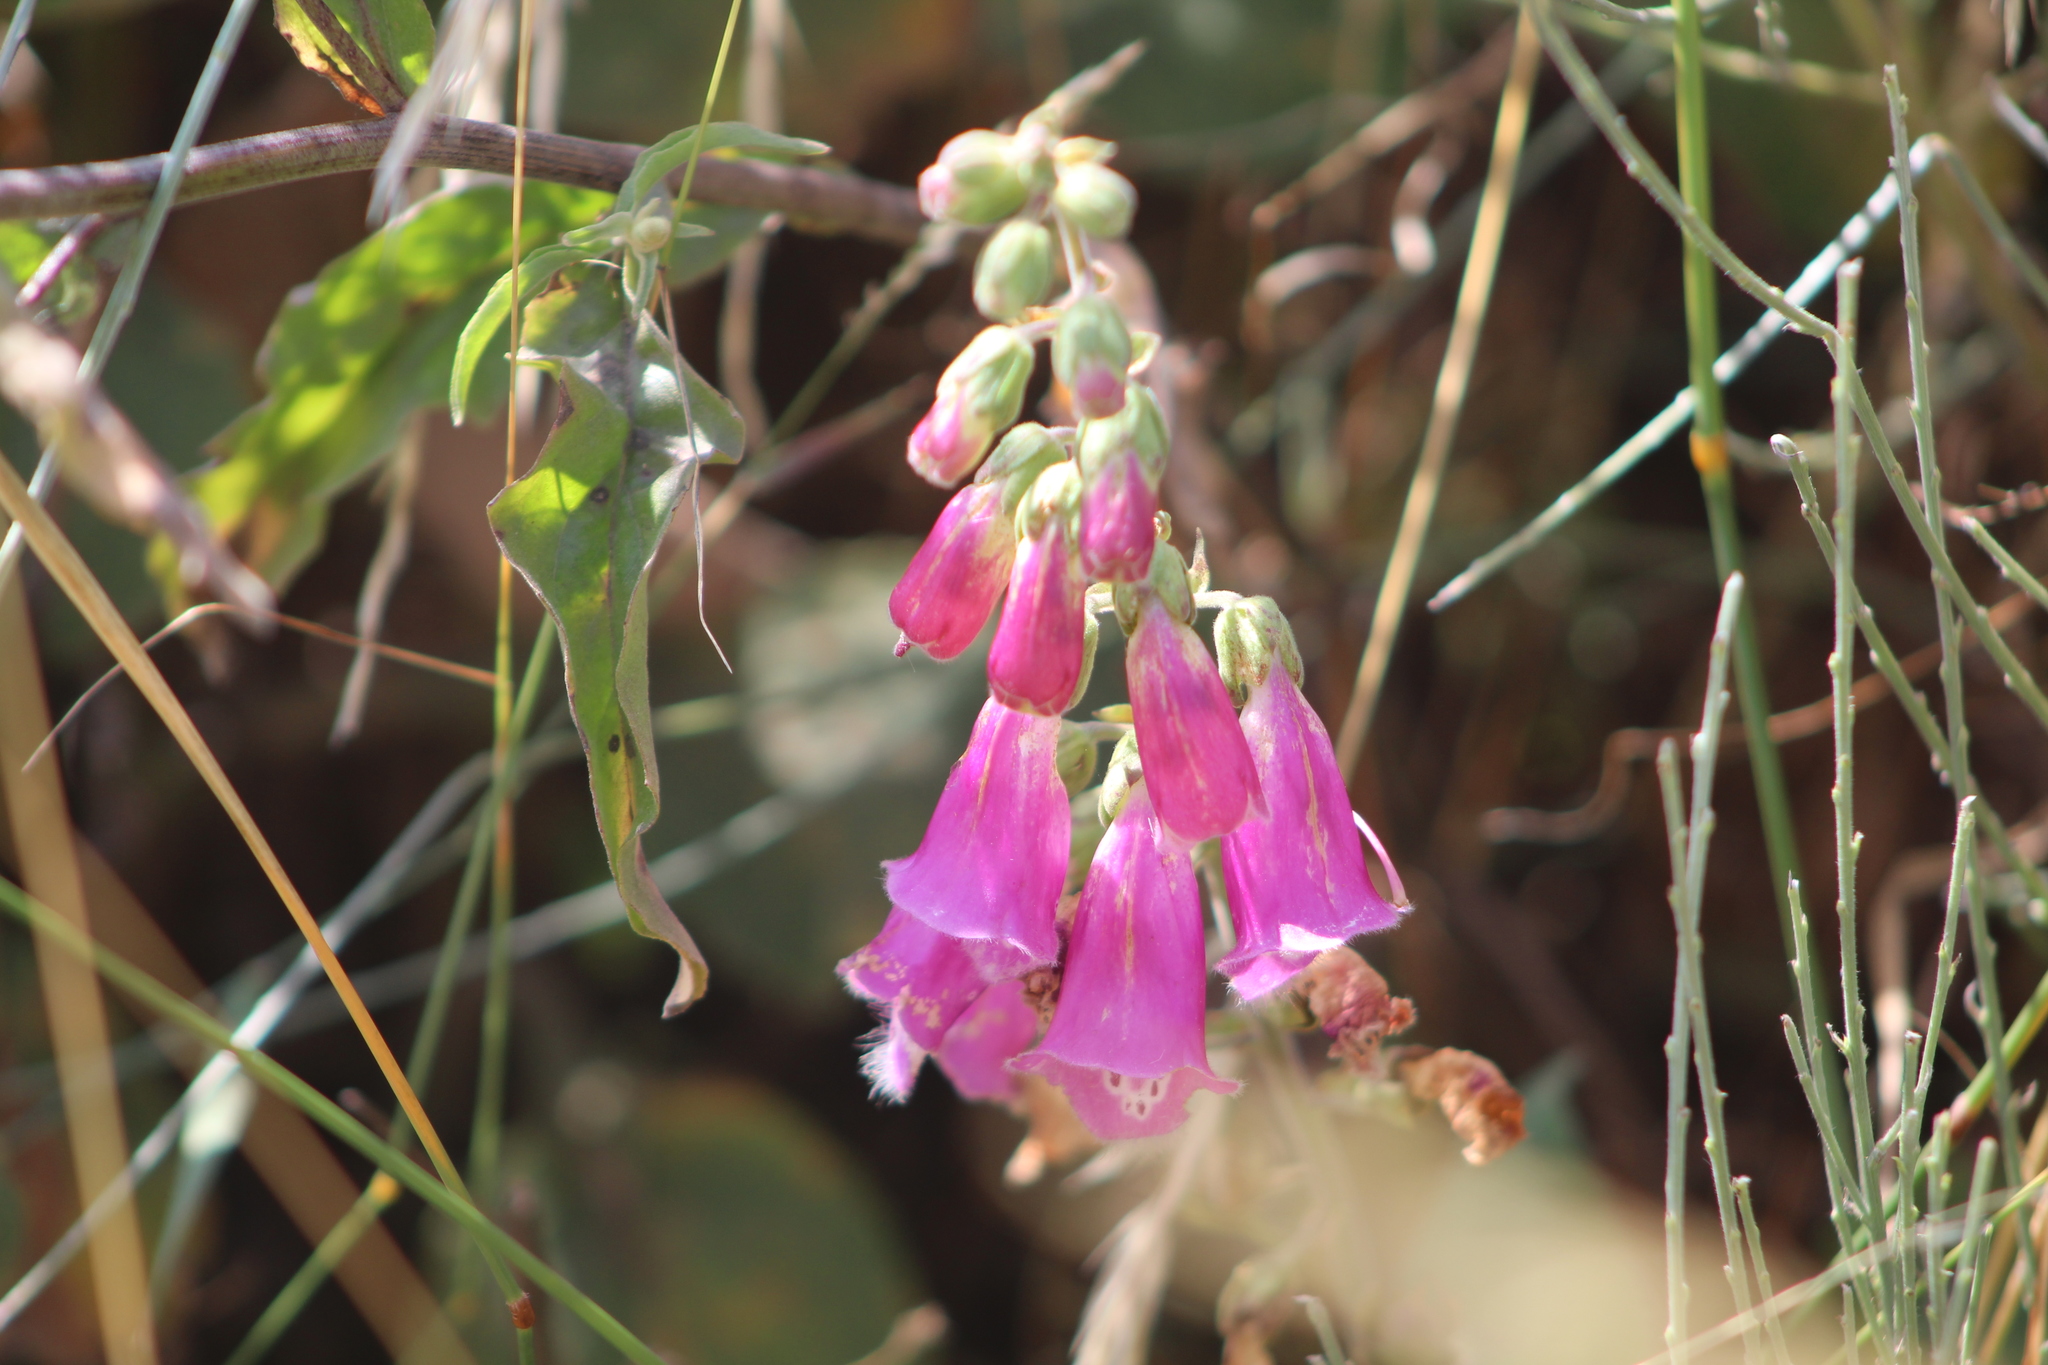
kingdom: Plantae
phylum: Tracheophyta
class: Magnoliopsida
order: Lamiales
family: Plantaginaceae
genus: Digitalis
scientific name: Digitalis purpurea
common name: Foxglove
